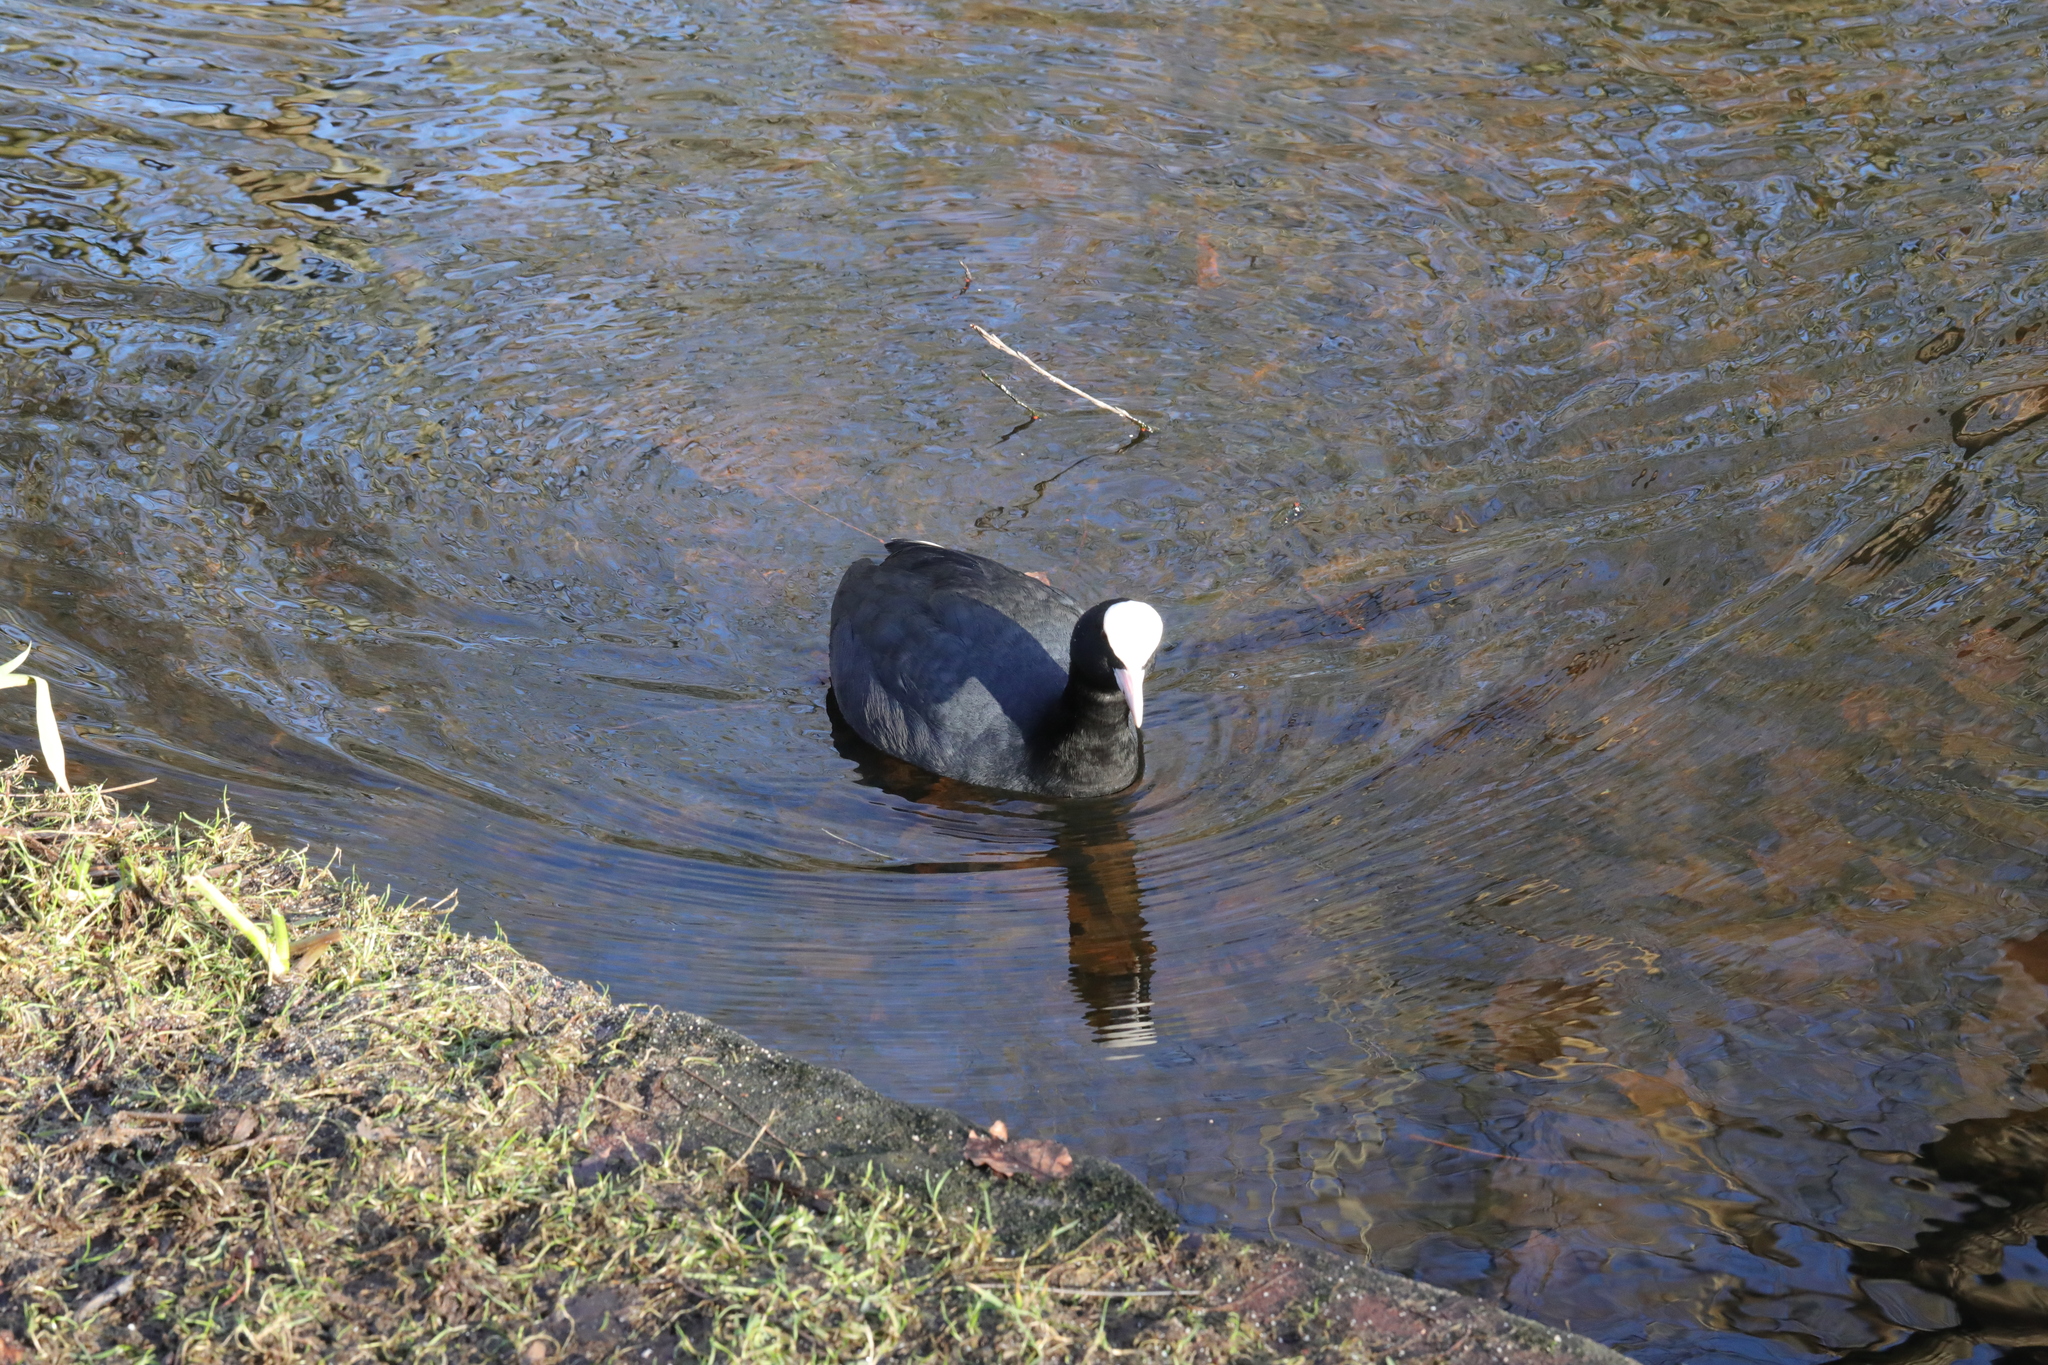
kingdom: Animalia
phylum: Chordata
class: Aves
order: Gruiformes
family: Rallidae
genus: Fulica
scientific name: Fulica atra
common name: Eurasian coot
